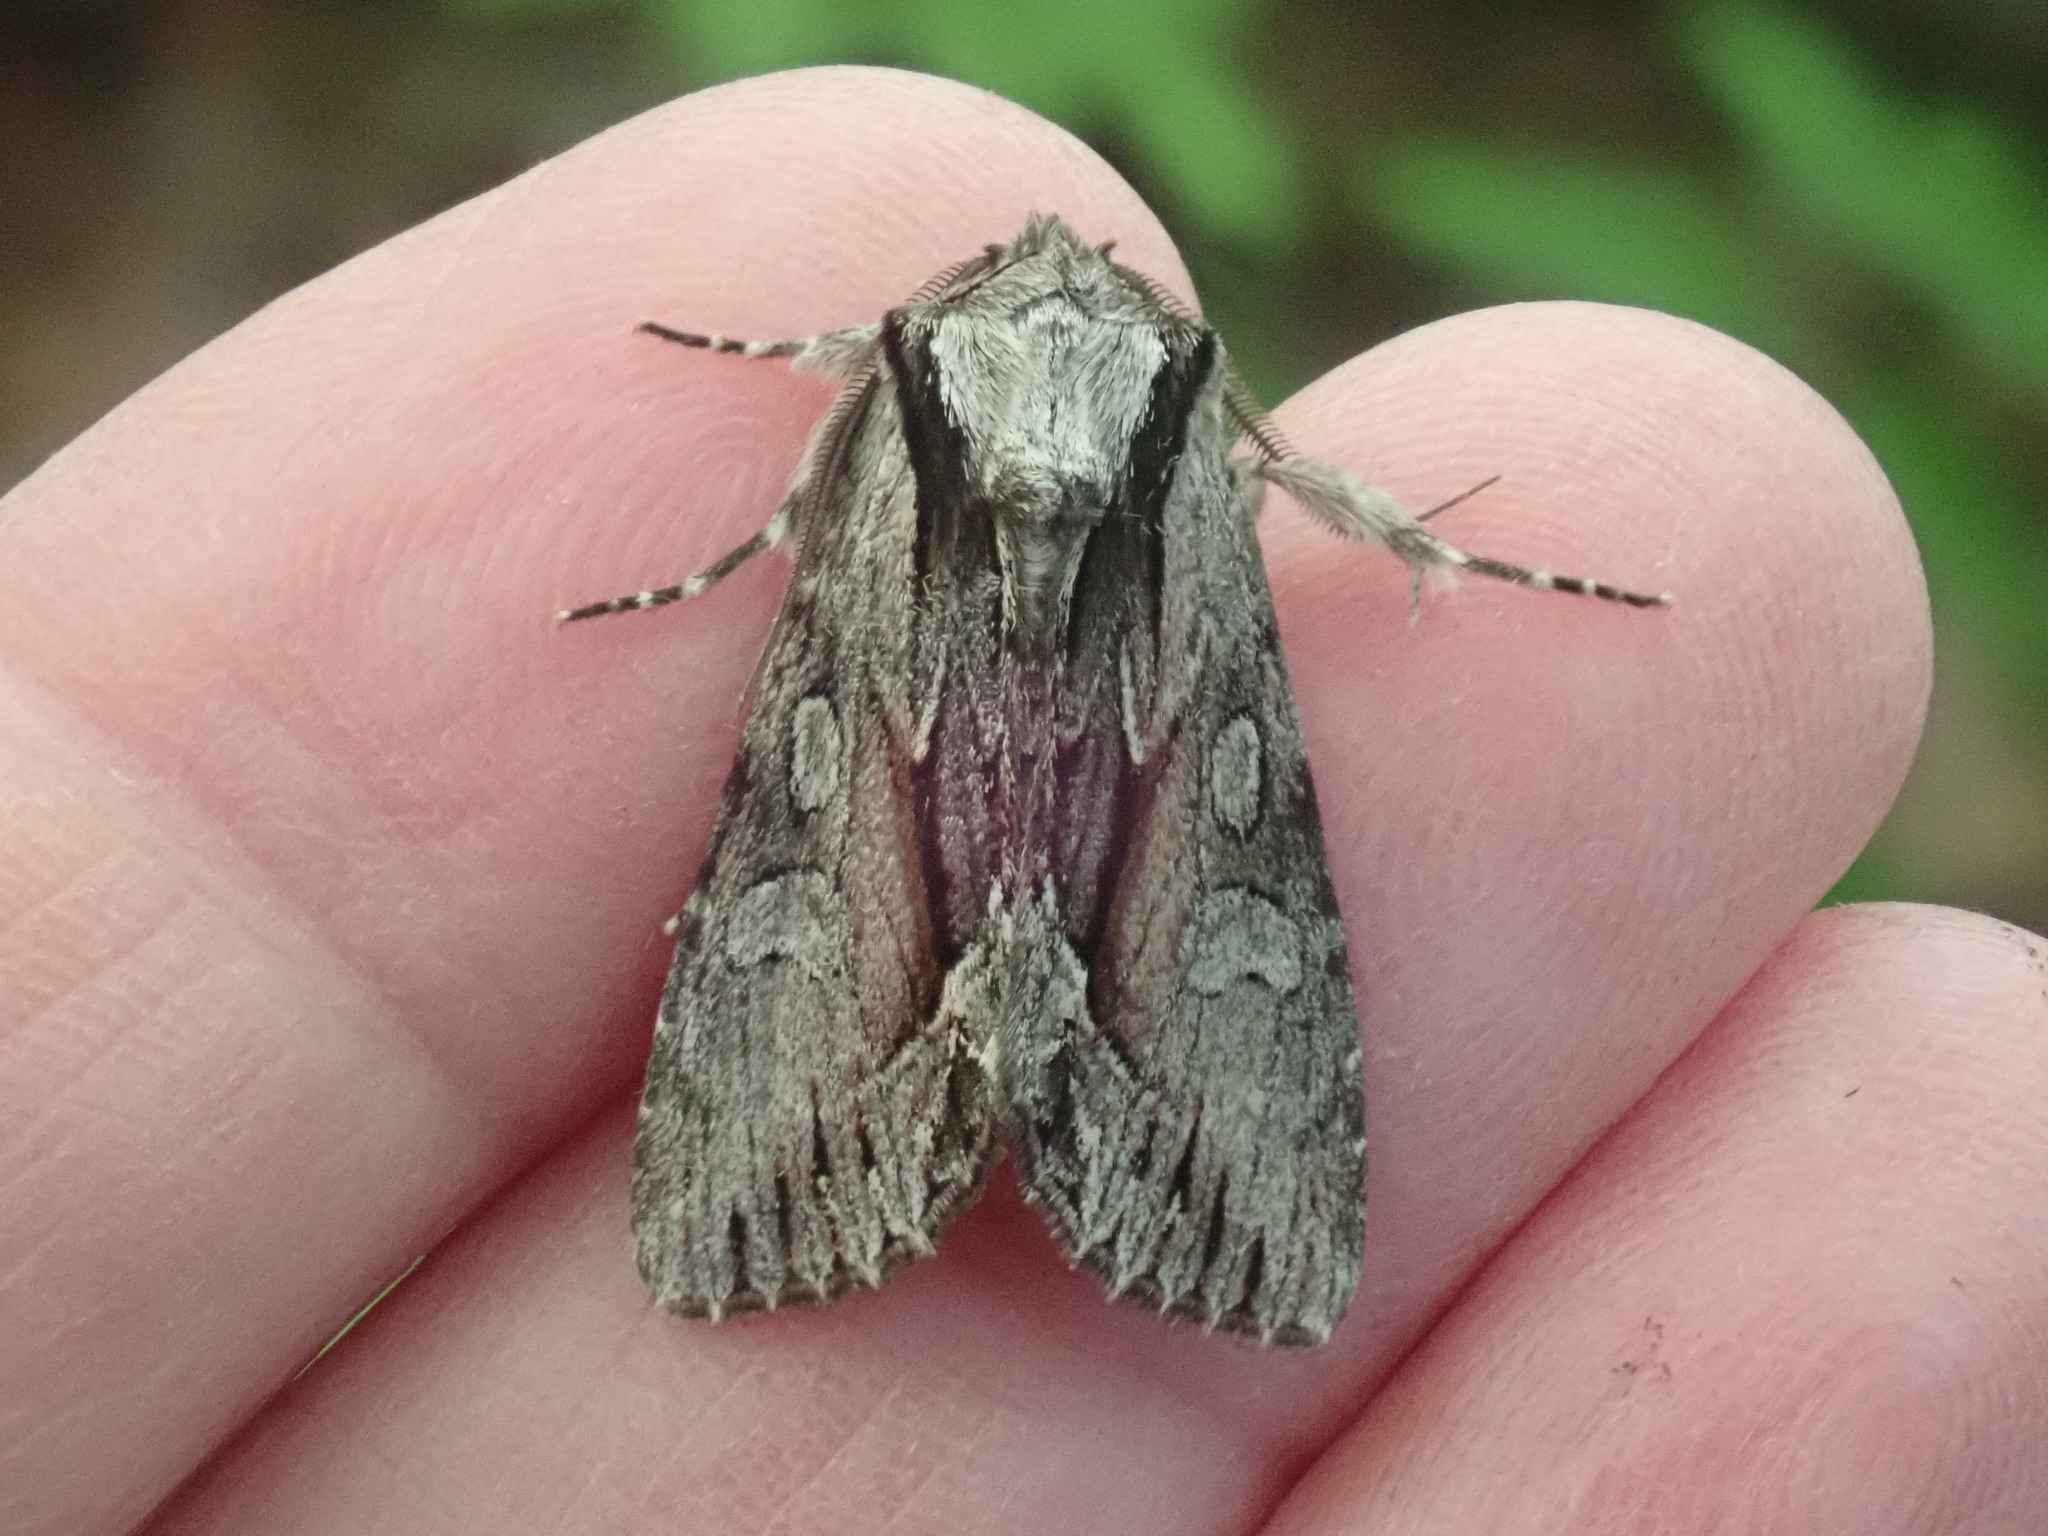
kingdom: Animalia
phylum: Arthropoda
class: Insecta
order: Lepidoptera
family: Noctuidae
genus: Hyppa
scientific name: Hyppa xylinoides
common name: Common hyppa moth
